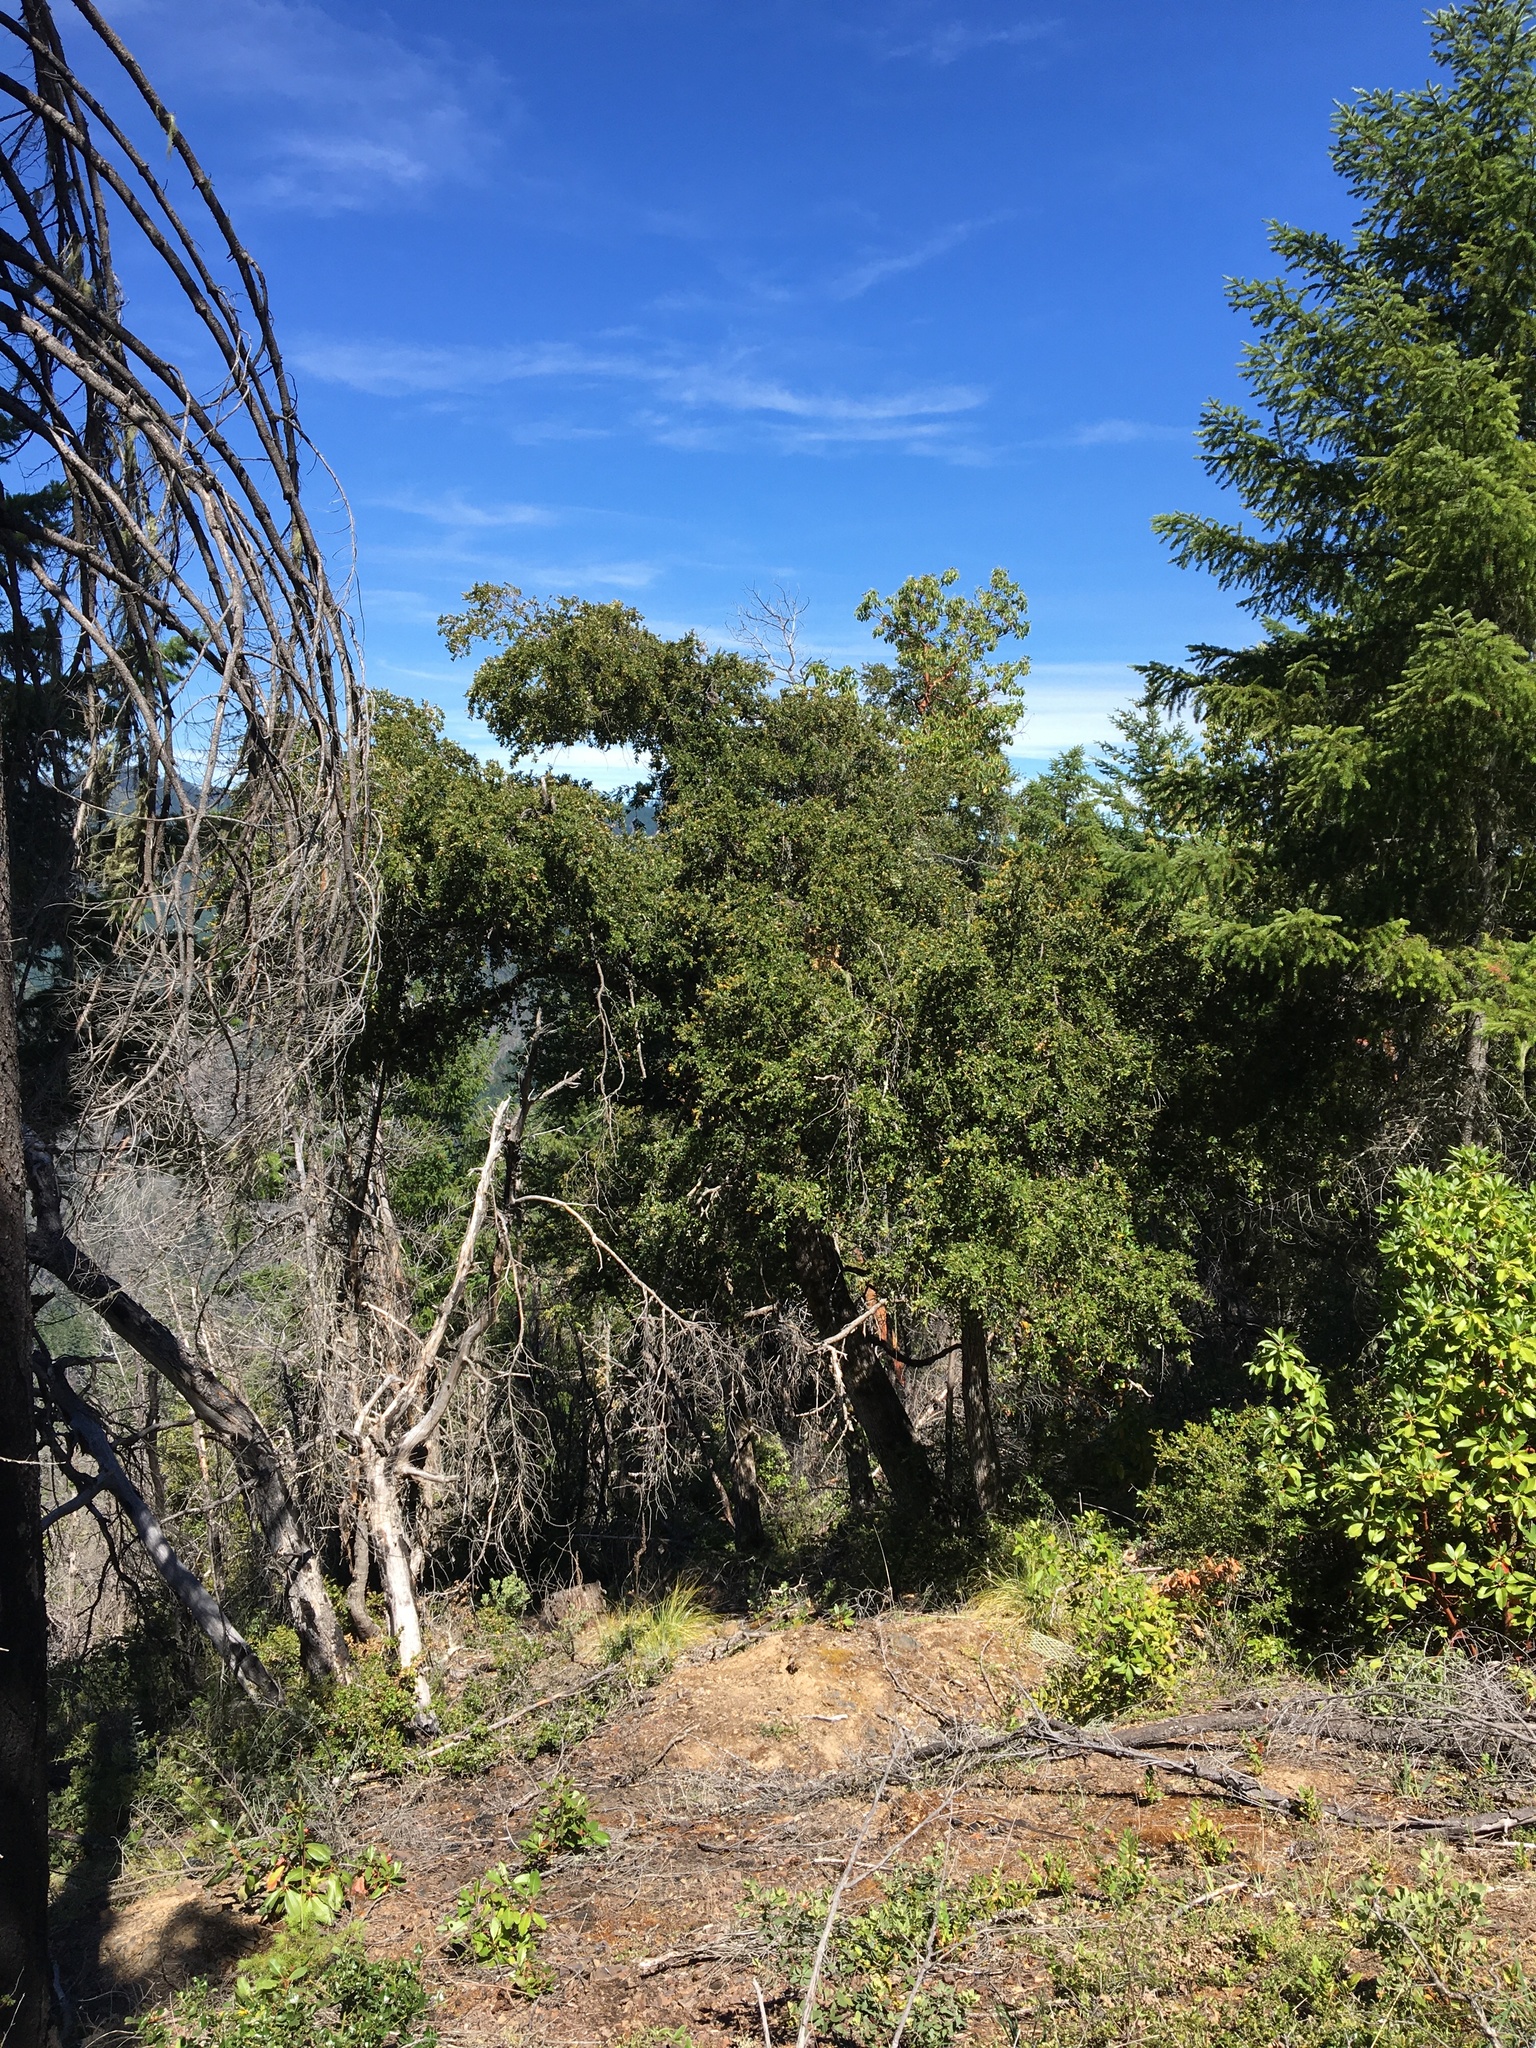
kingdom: Plantae
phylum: Tracheophyta
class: Magnoliopsida
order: Fagales
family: Fagaceae
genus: Quercus
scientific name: Quercus chrysolepis
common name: Canyon live oak
